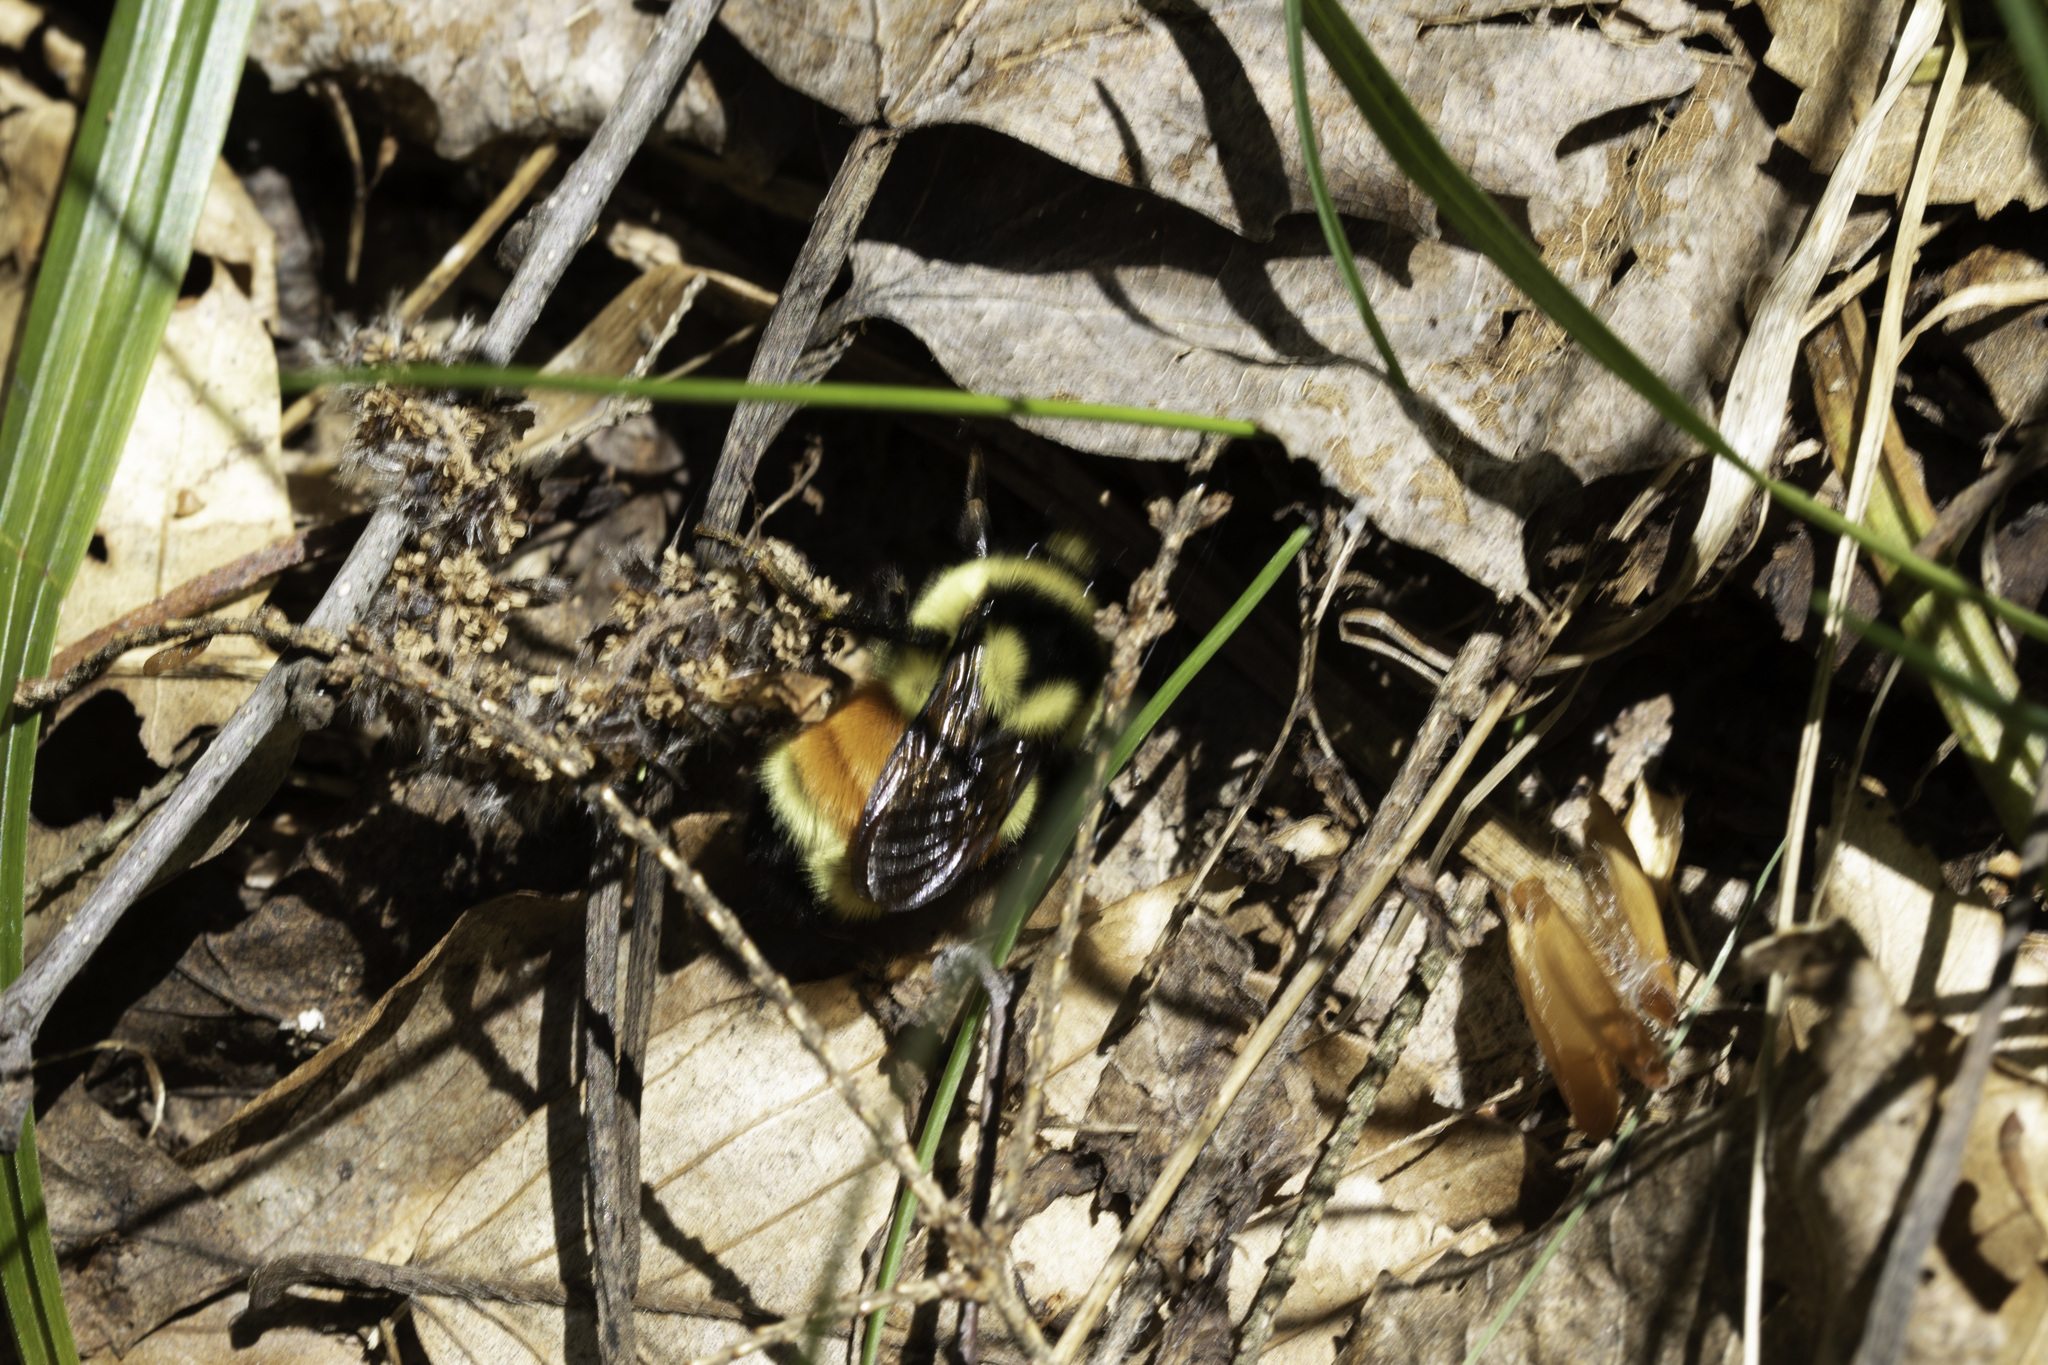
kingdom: Animalia
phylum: Arthropoda
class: Insecta
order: Hymenoptera
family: Apidae
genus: Bombus
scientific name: Bombus ternarius
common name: Tri-colored bumble bee
